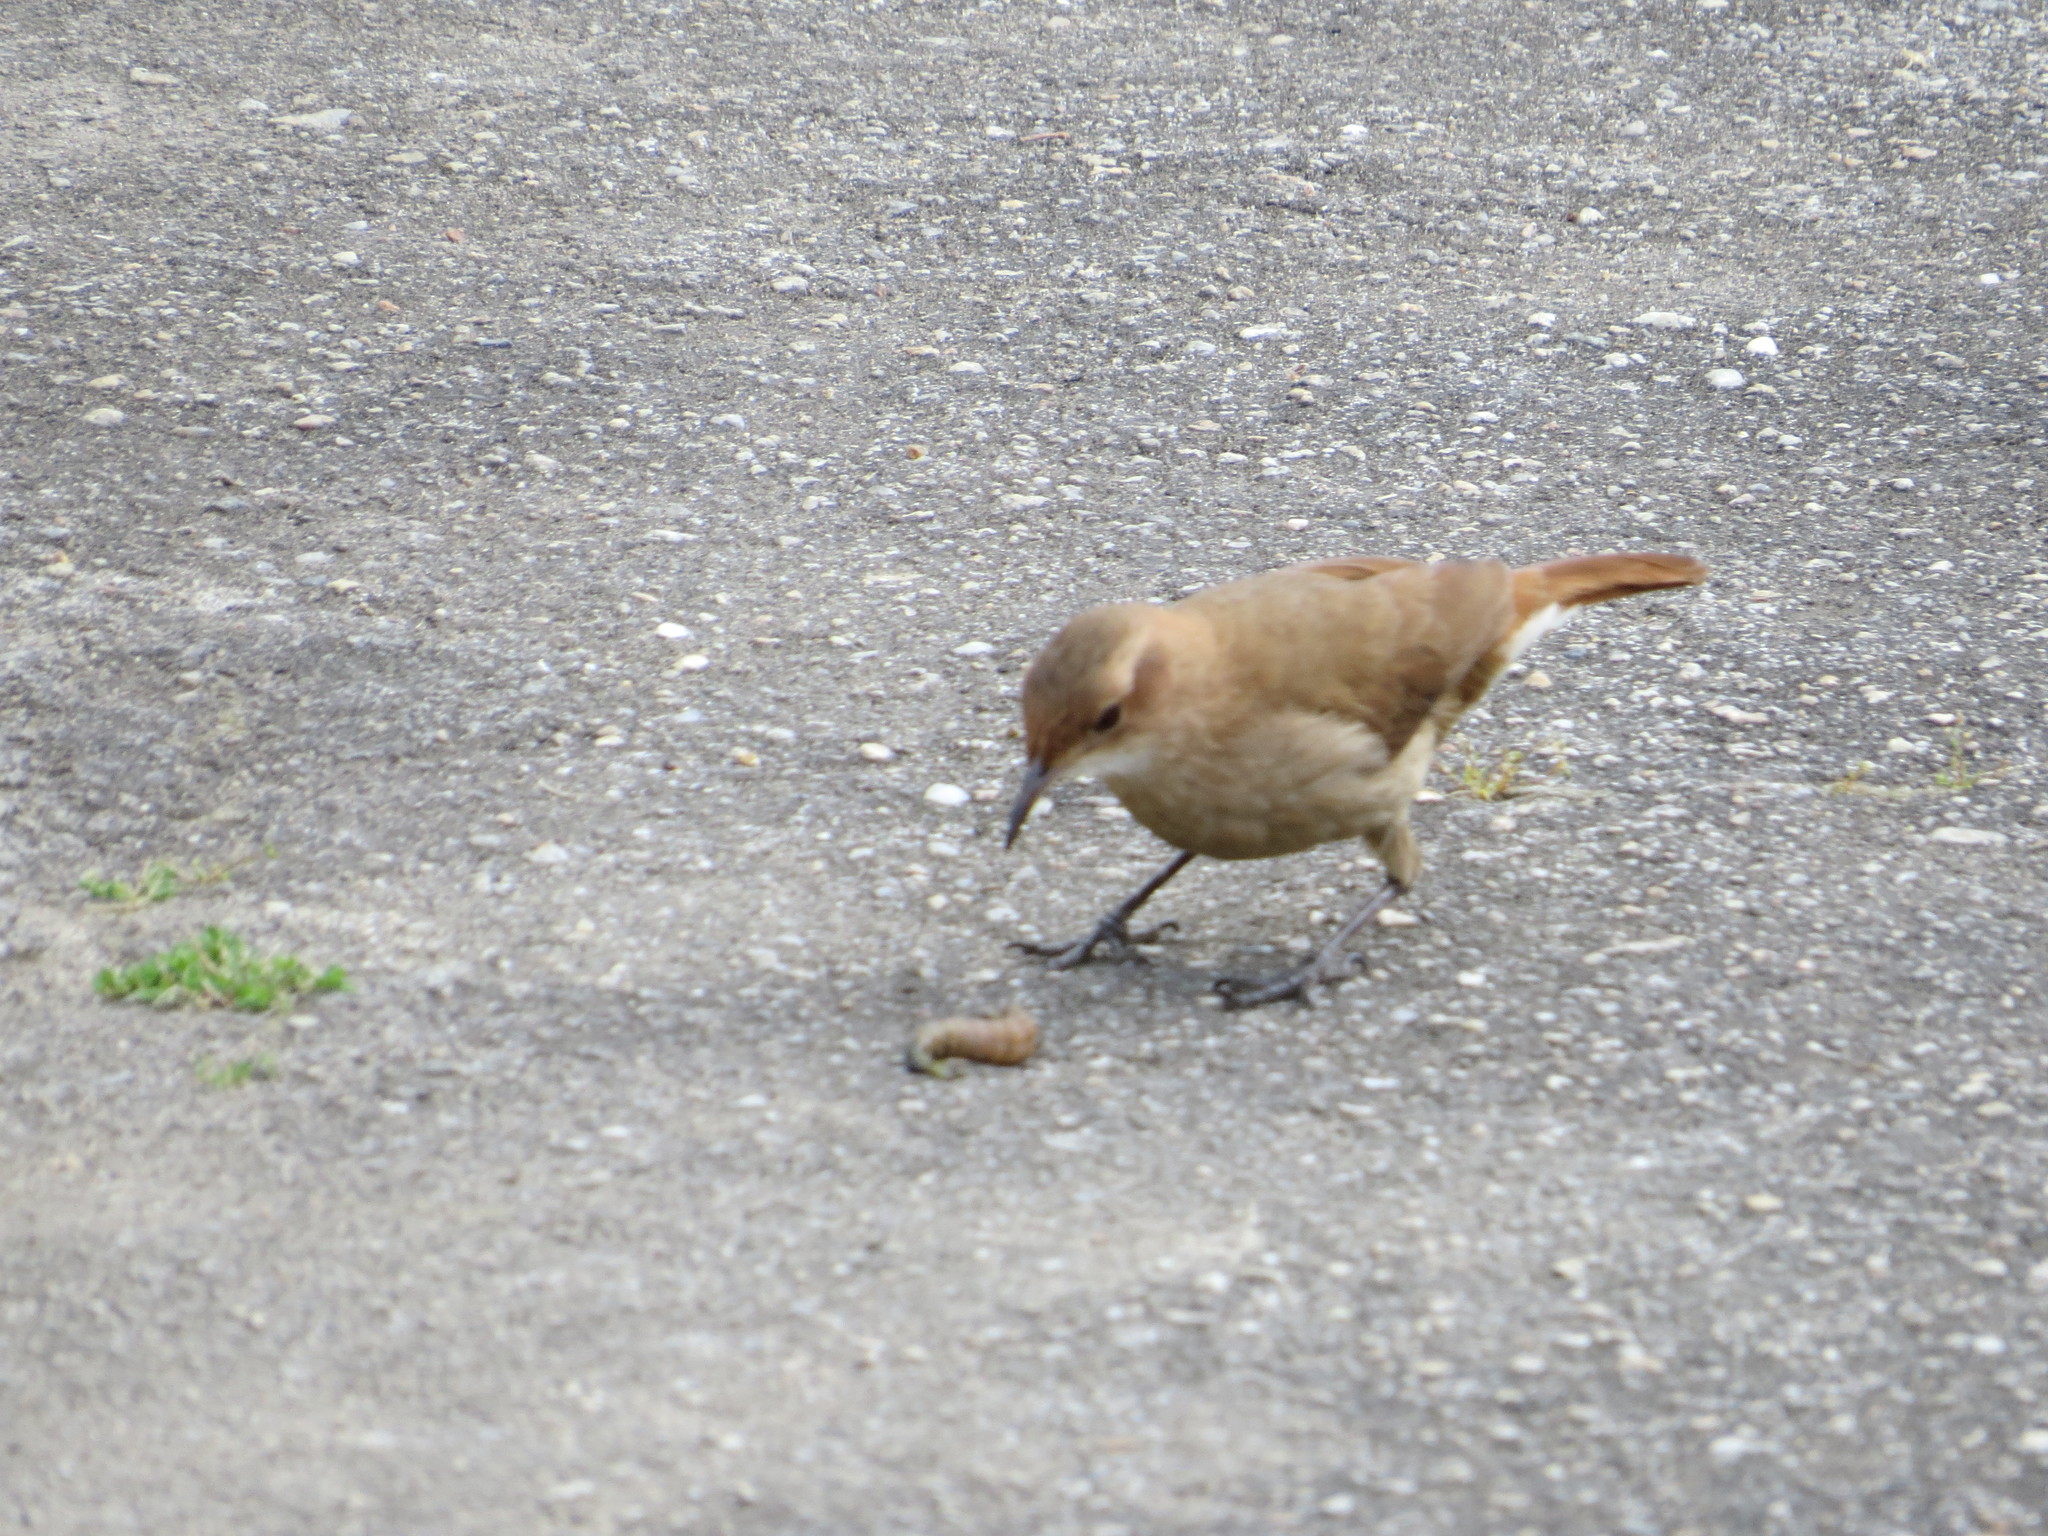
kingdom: Animalia
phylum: Chordata
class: Aves
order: Passeriformes
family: Furnariidae
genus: Furnarius
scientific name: Furnarius rufus
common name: Rufous hornero
